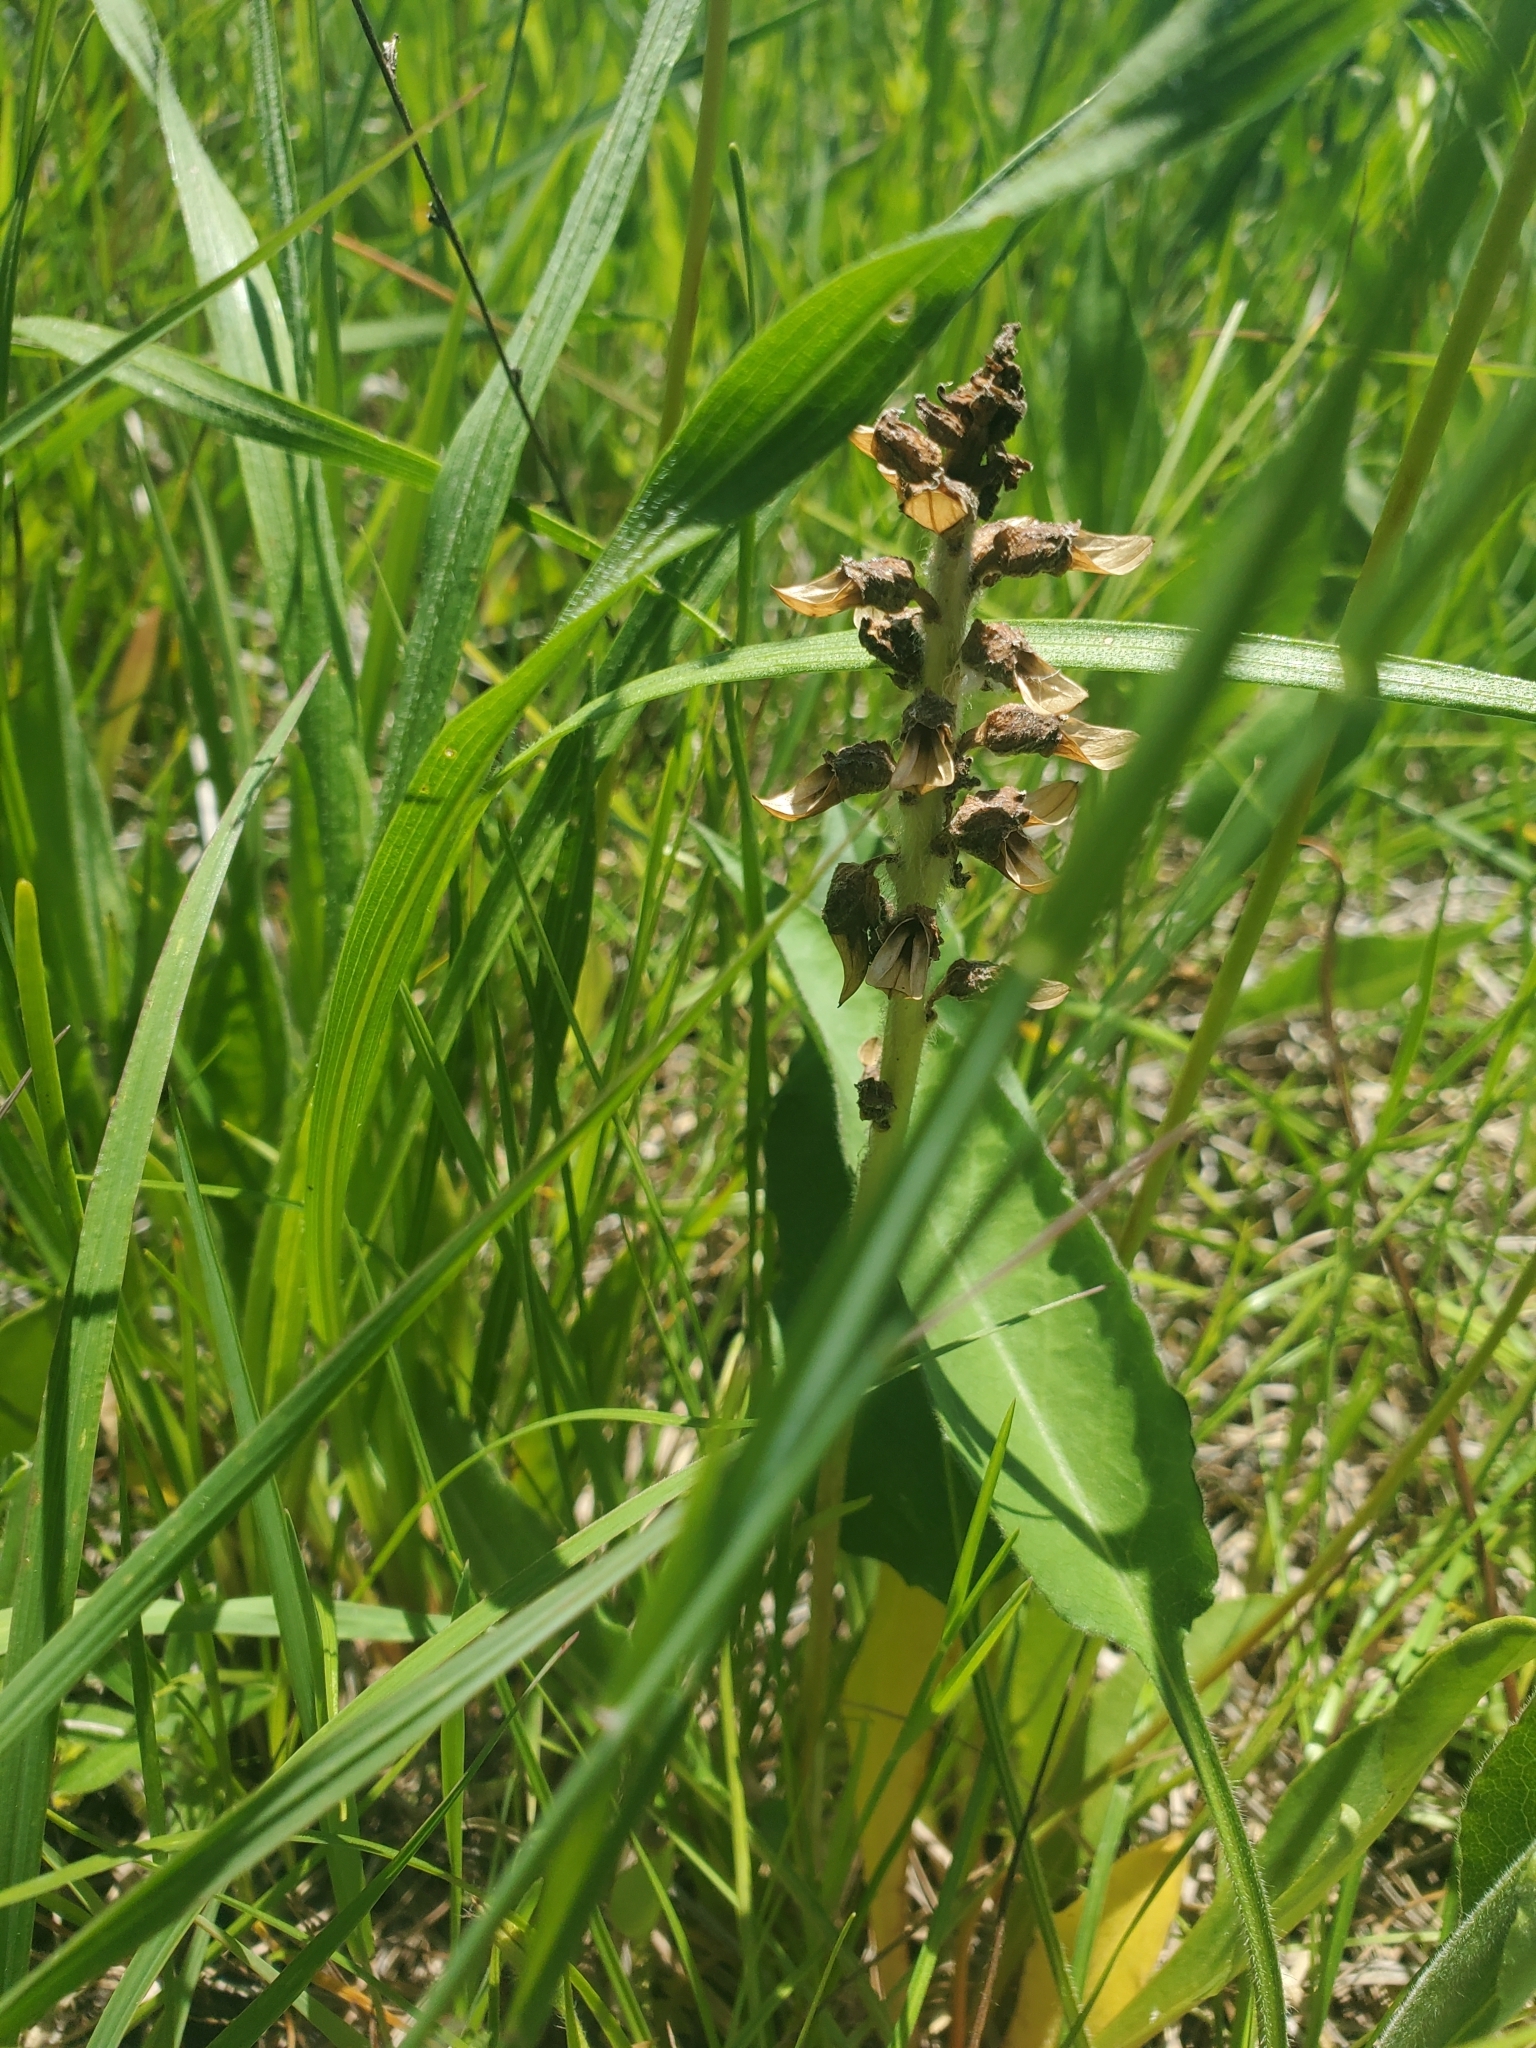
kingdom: Plantae
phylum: Tracheophyta
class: Magnoliopsida
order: Lamiales
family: Orobanchaceae
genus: Pedicularis
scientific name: Pedicularis canadensis
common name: Early lousewort
